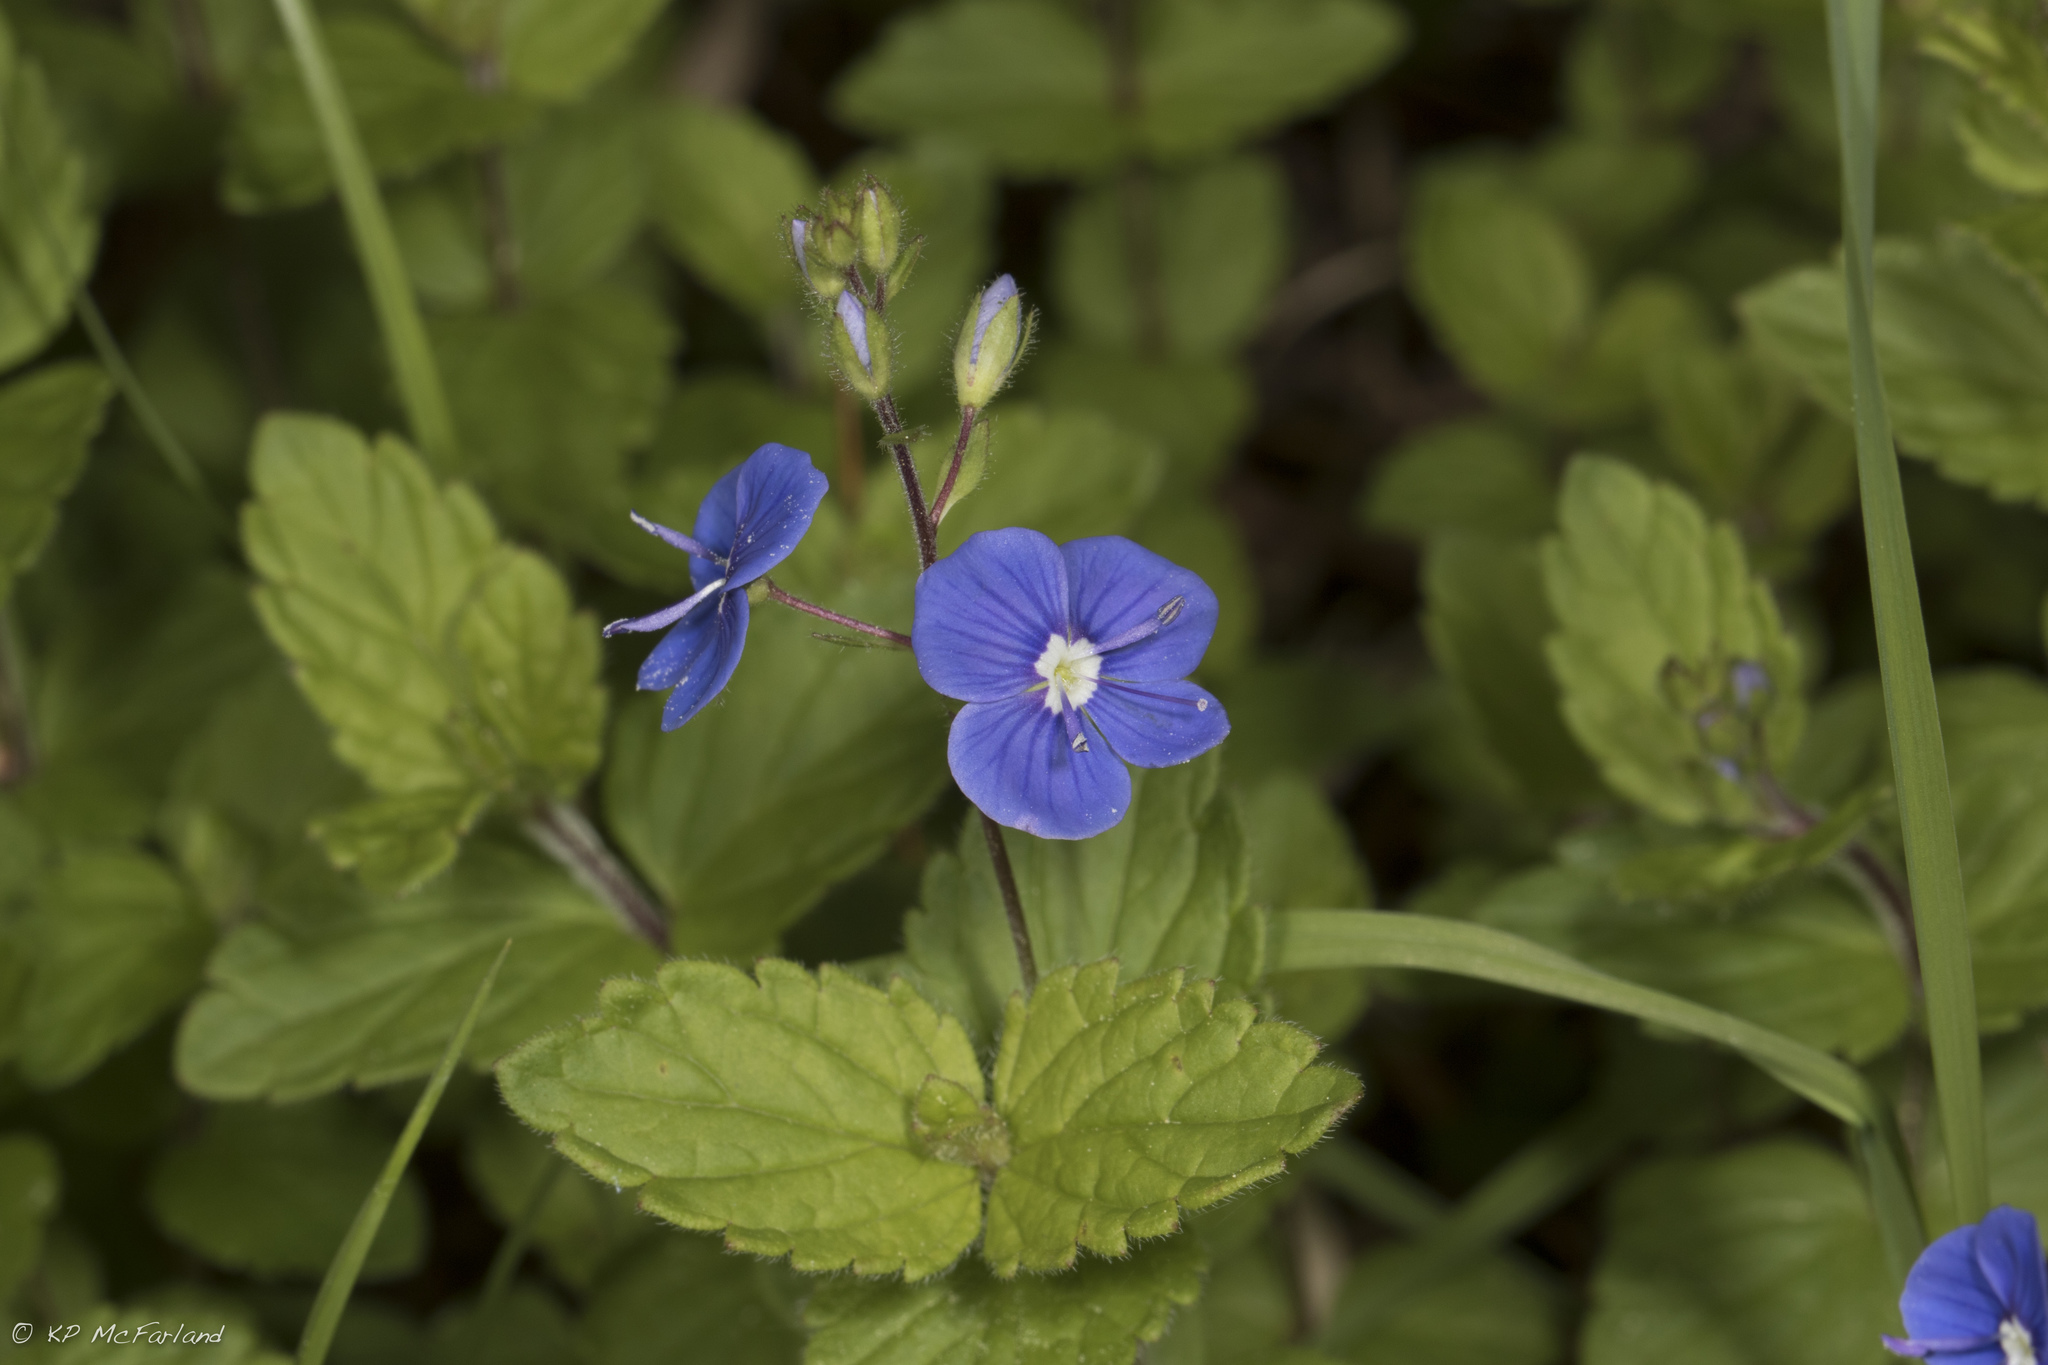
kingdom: Plantae
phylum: Tracheophyta
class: Magnoliopsida
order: Lamiales
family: Plantaginaceae
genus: Veronica
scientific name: Veronica chamaedrys
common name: Germander speedwell
